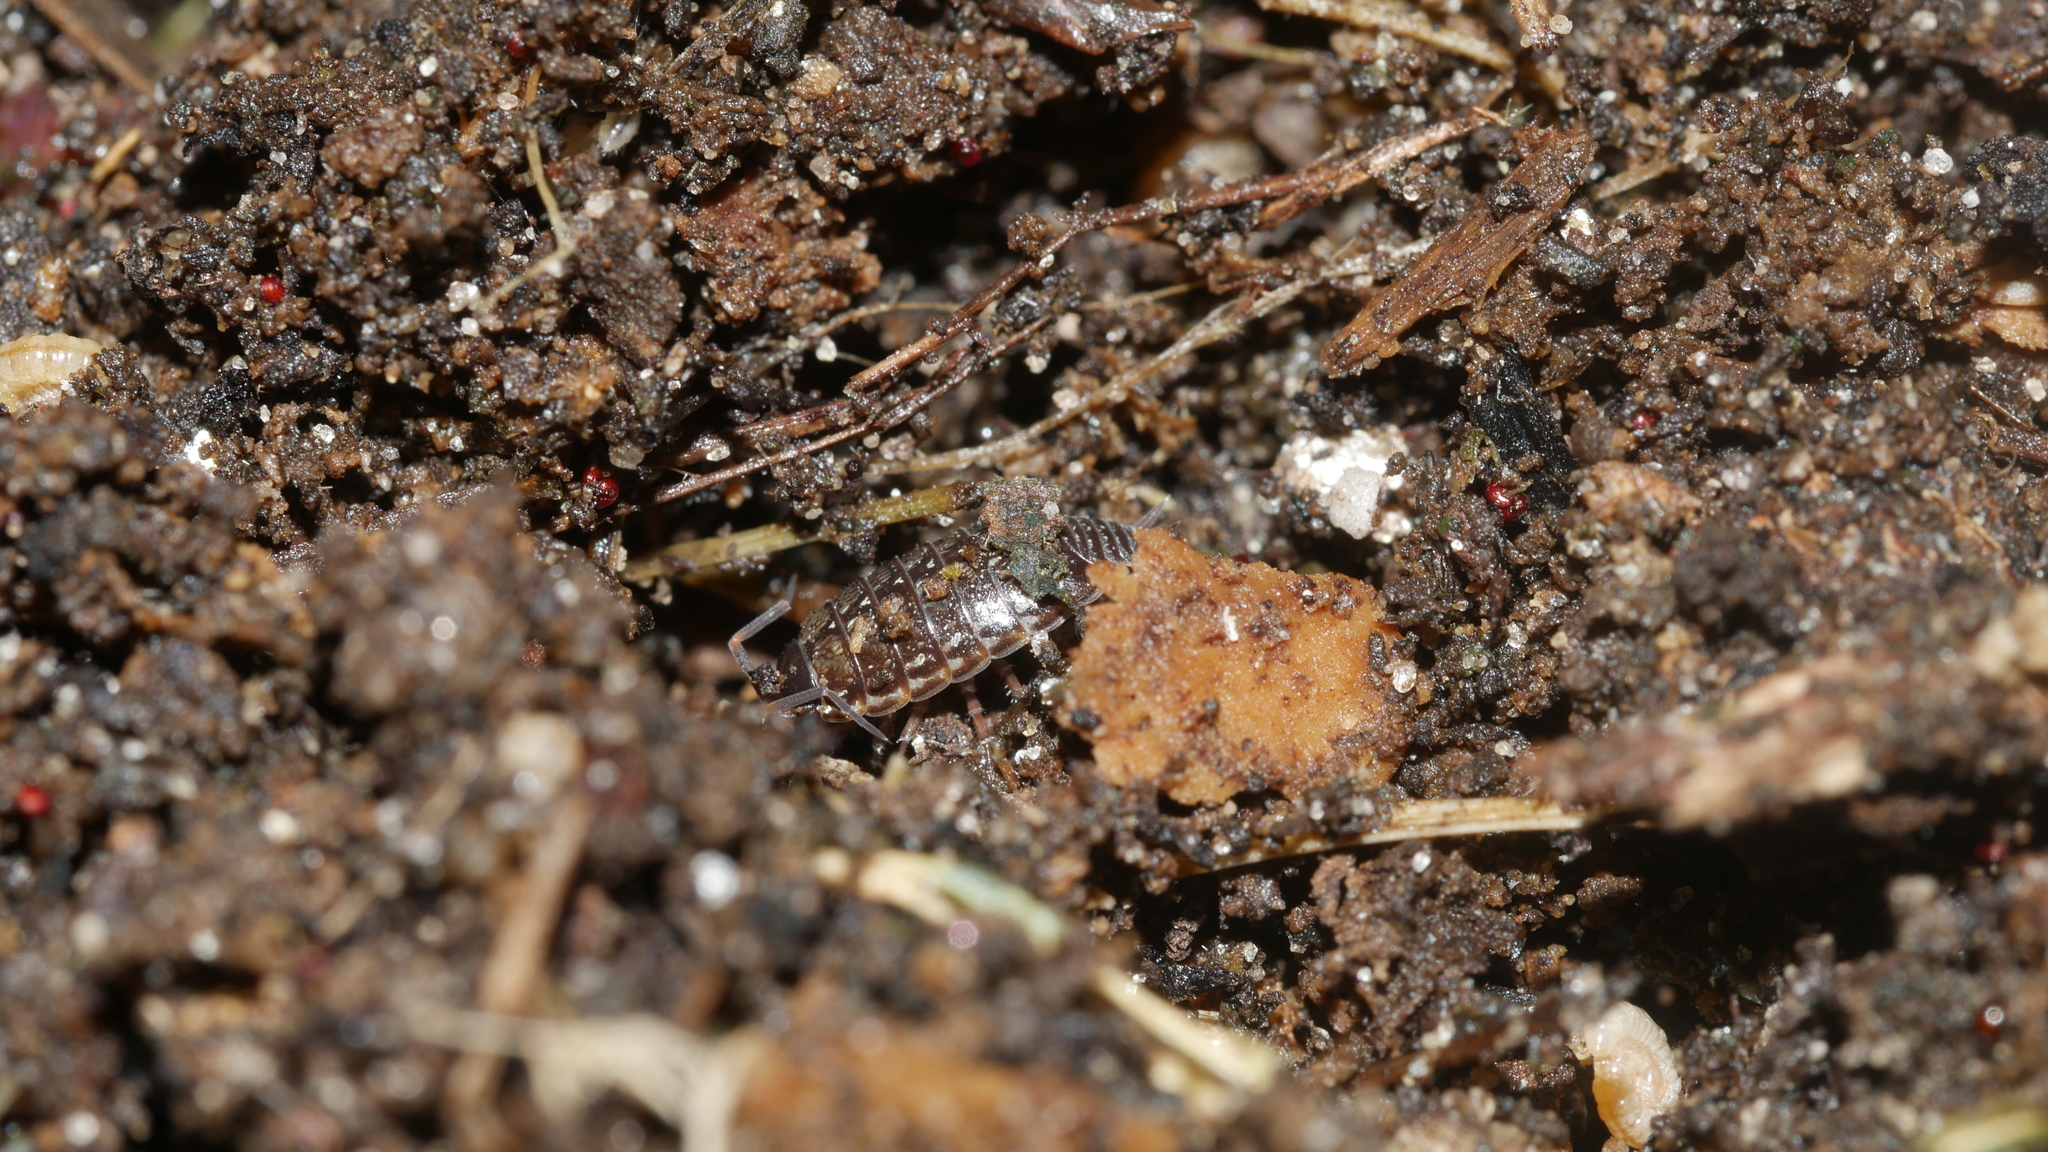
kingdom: Animalia
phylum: Arthropoda
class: Malacostraca
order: Isopoda
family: Philosciidae
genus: Philoscia
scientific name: Philoscia muscorum
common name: Common striped woodlouse
